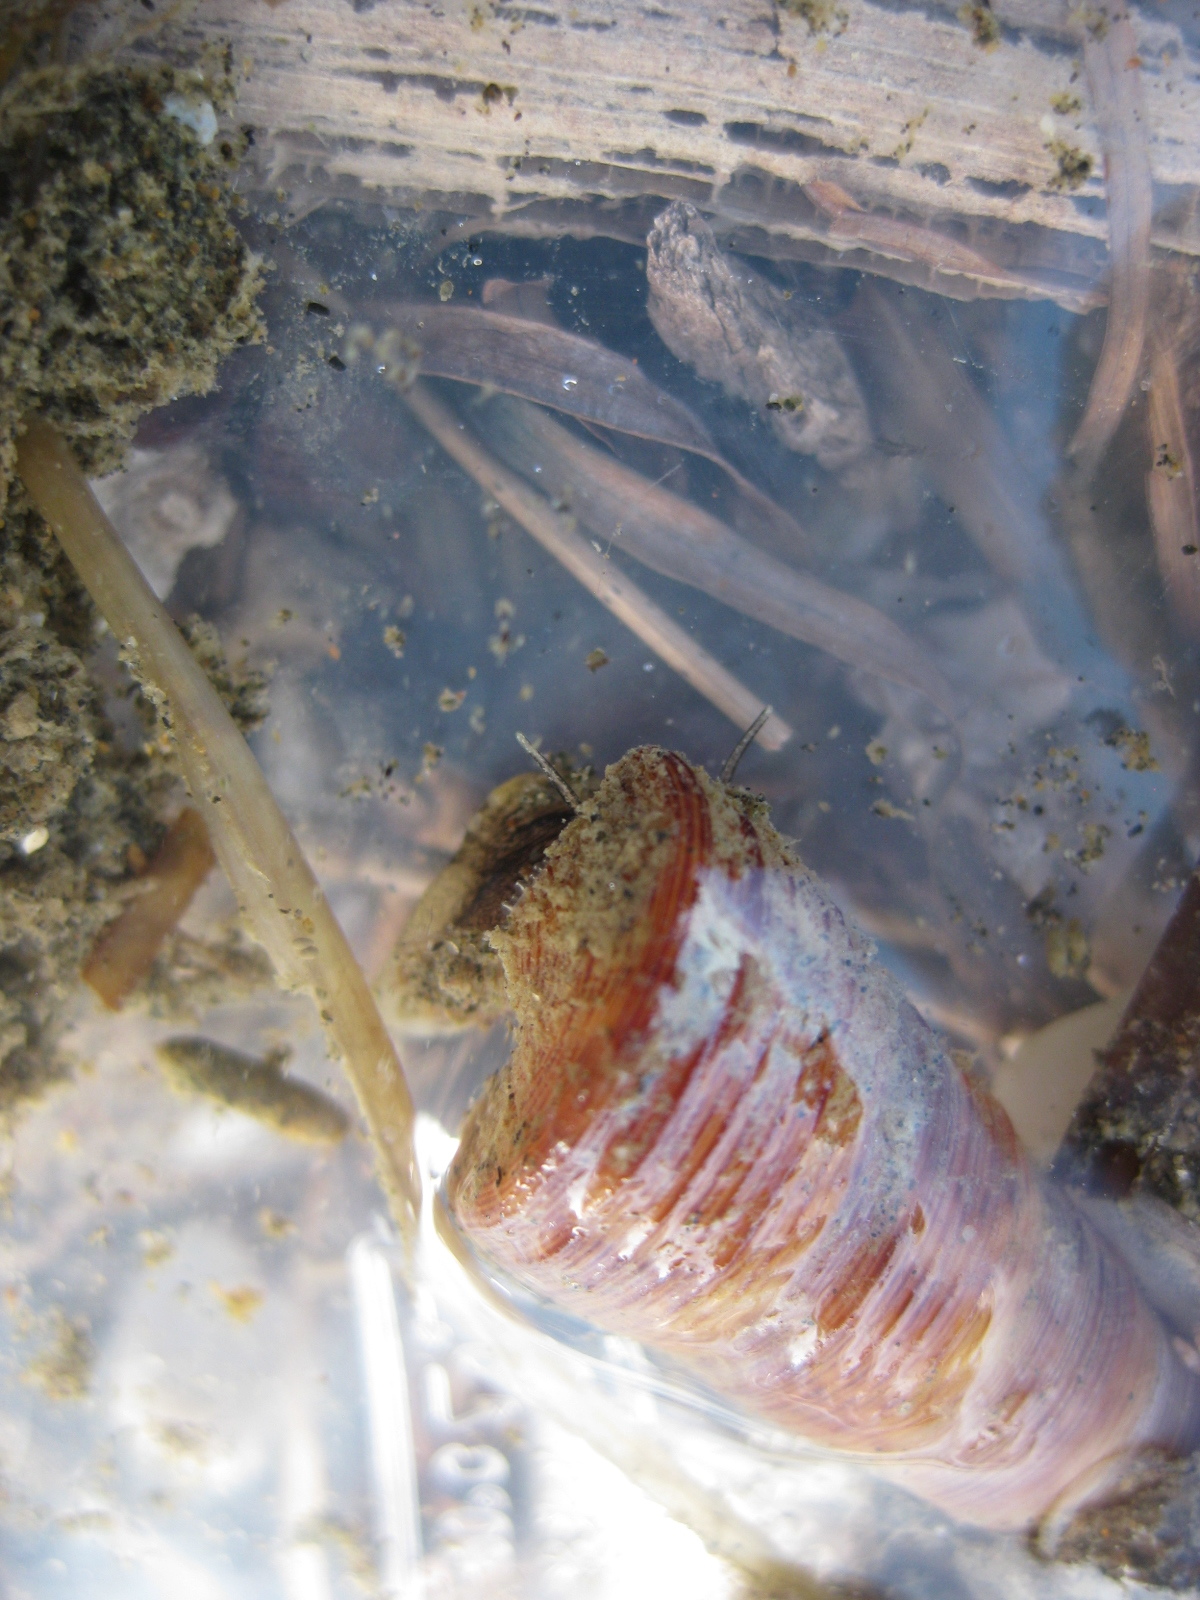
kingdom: Animalia
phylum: Mollusca
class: Gastropoda
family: Turritellidae
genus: Maoricolpus
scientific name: Maoricolpus roseus
